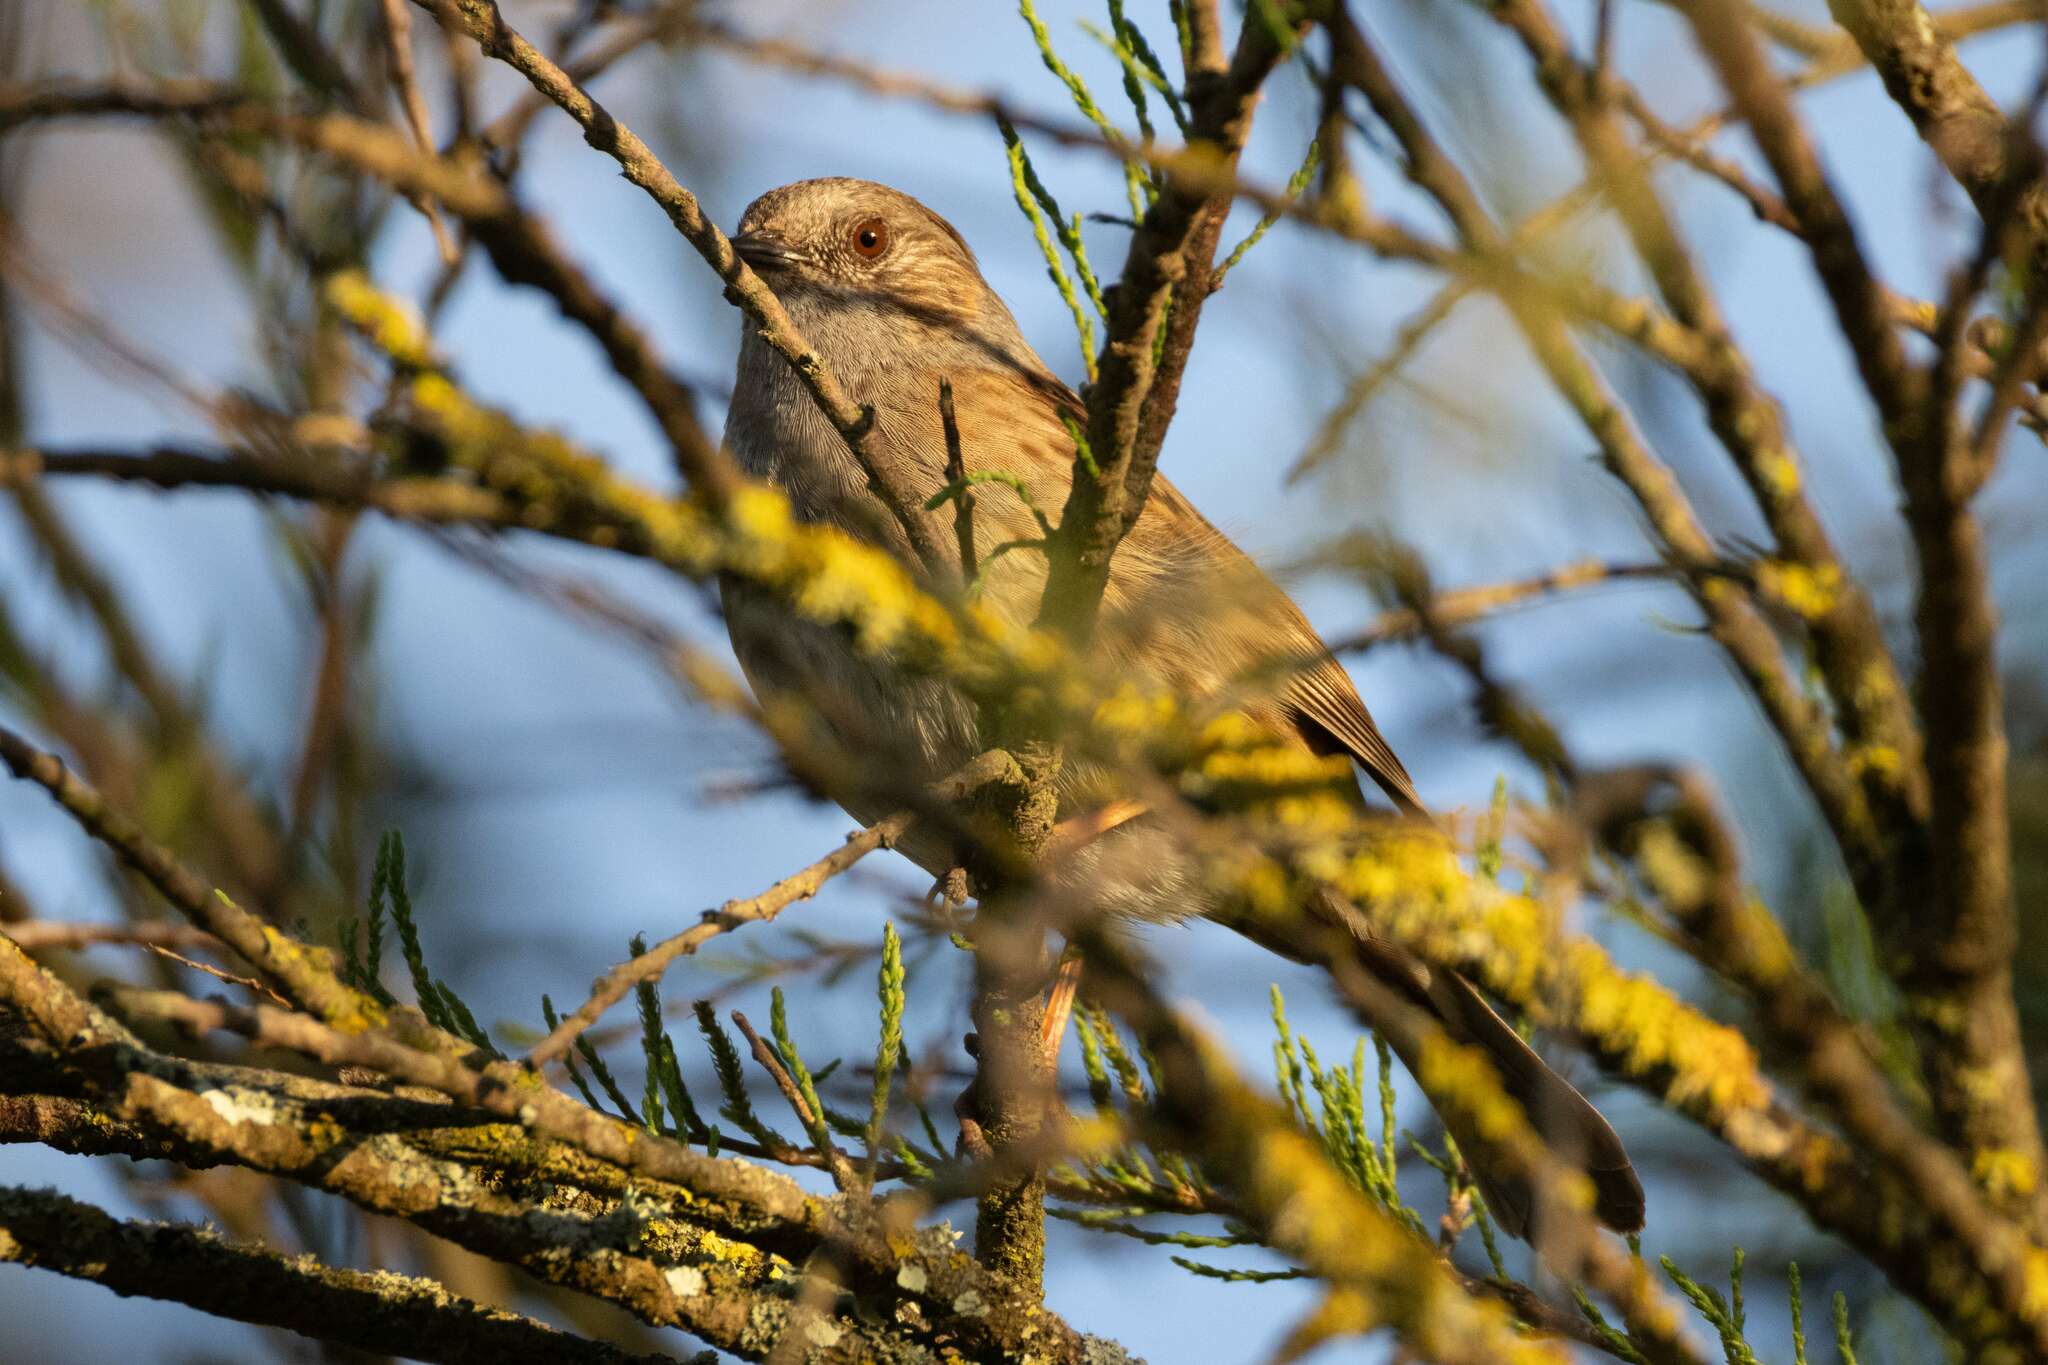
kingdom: Animalia
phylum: Chordata
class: Aves
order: Passeriformes
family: Prunellidae
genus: Prunella
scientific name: Prunella modularis
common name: Dunnock
